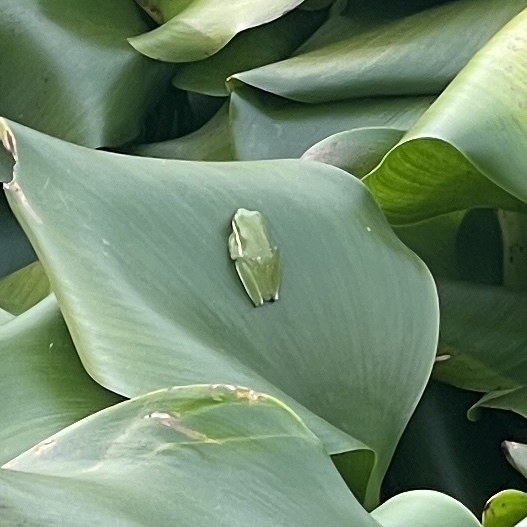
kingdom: Animalia
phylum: Chordata
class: Amphibia
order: Anura
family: Hylidae
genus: Dryophytes
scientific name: Dryophytes cinereus
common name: Green treefrog
